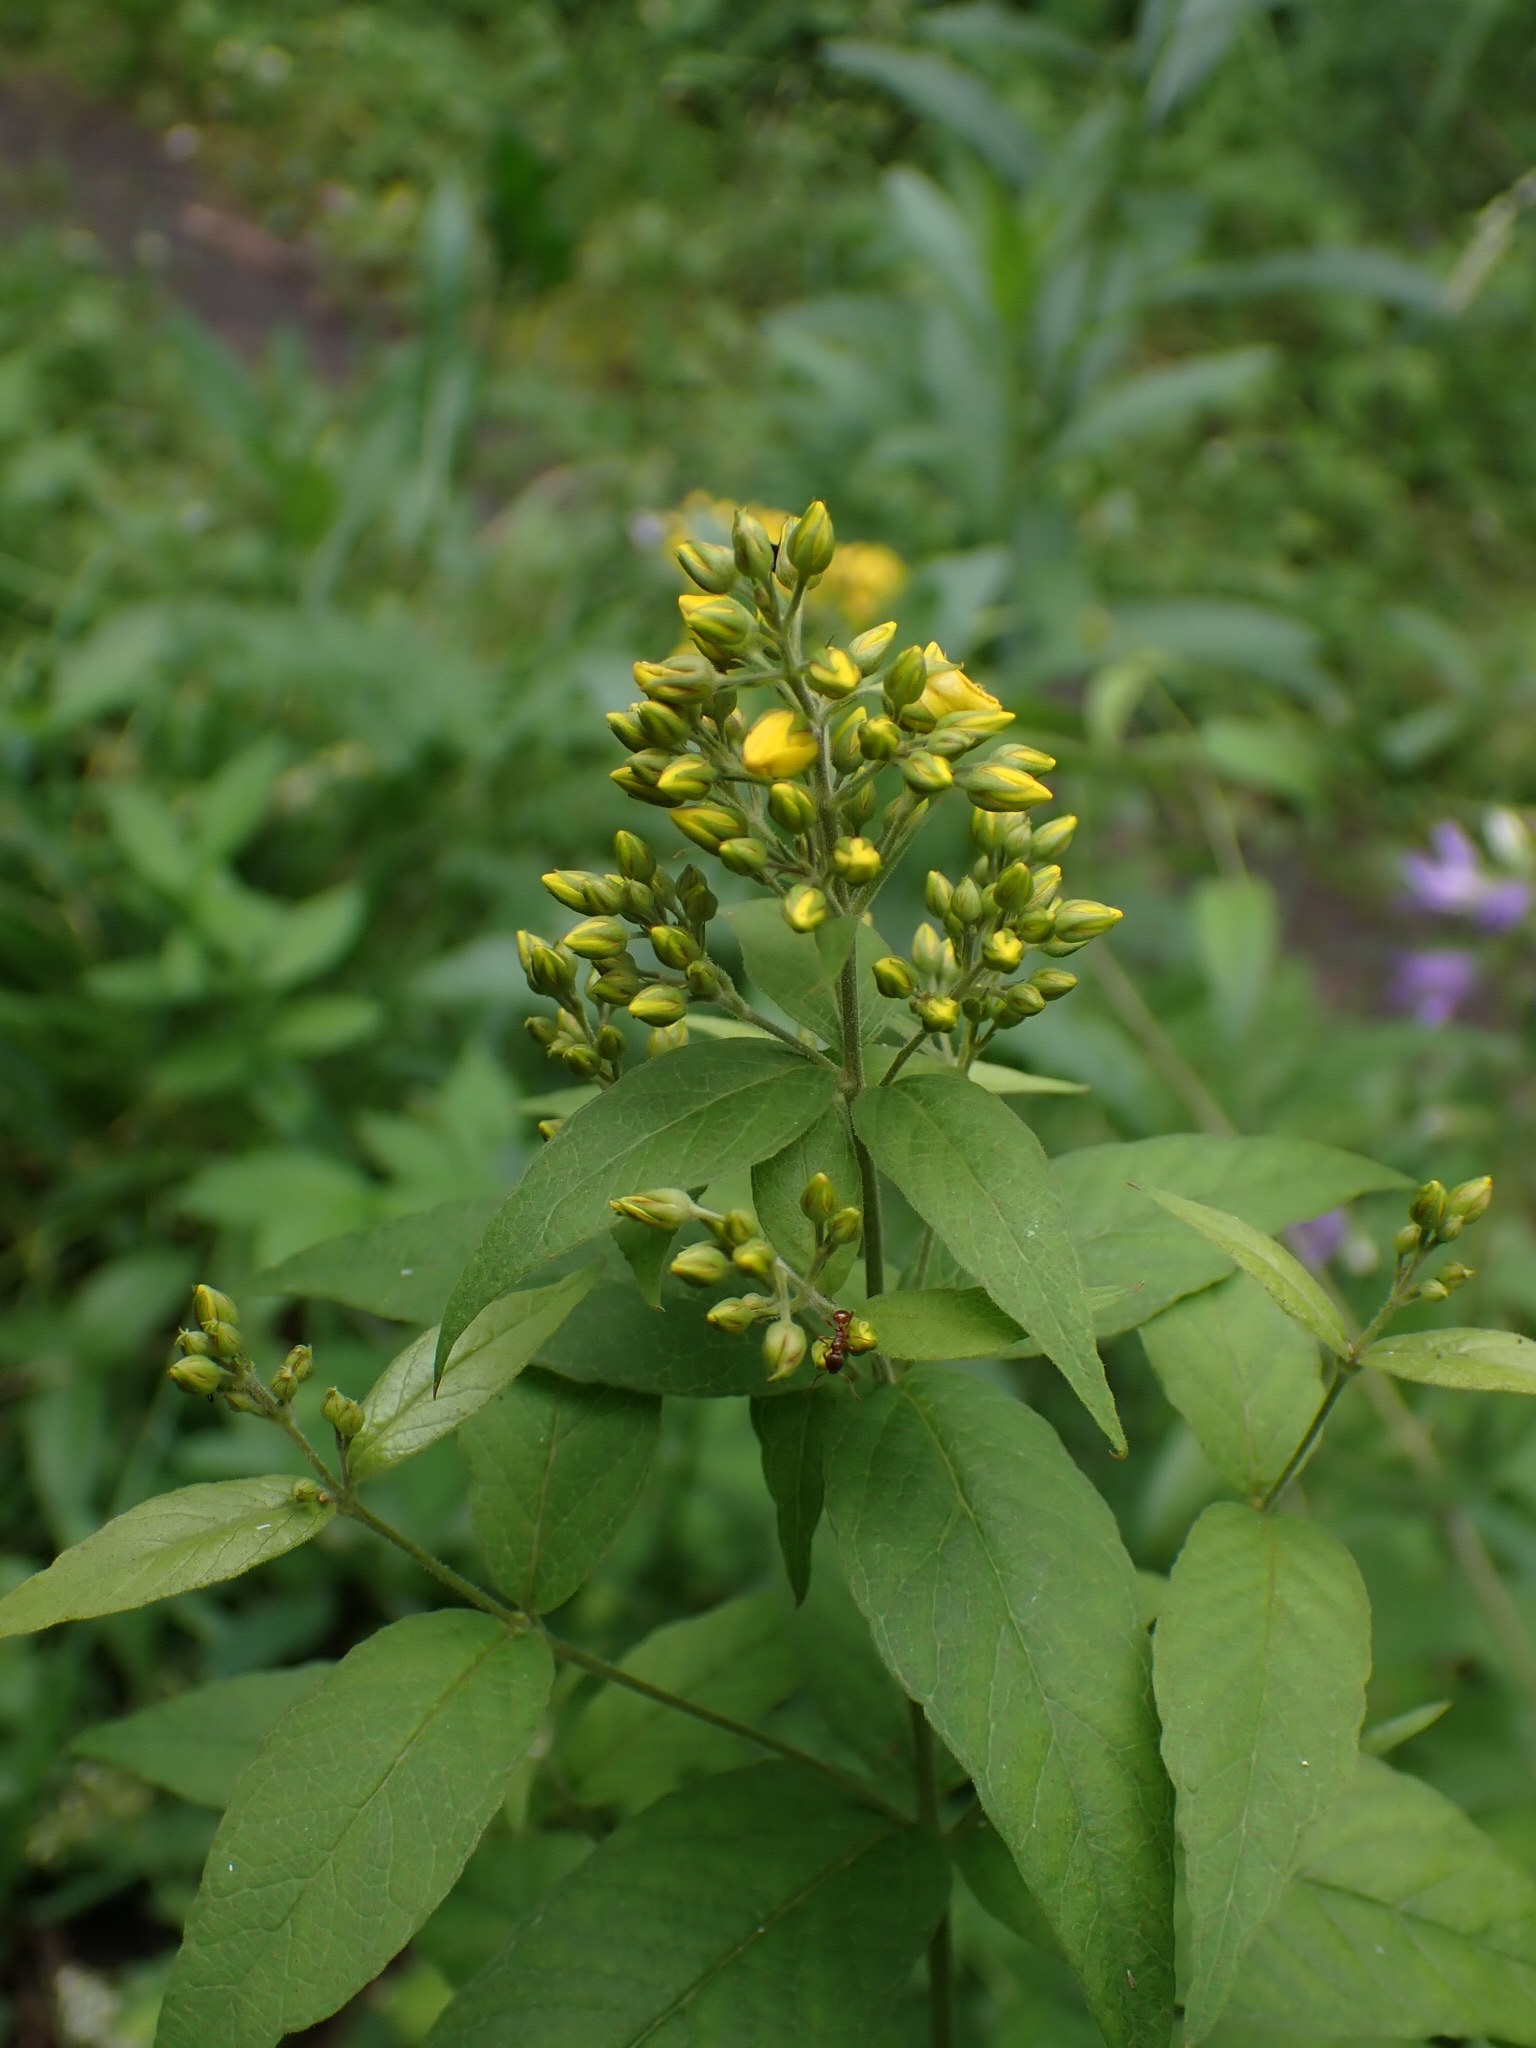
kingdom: Plantae
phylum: Tracheophyta
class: Magnoliopsida
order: Ericales
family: Primulaceae
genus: Lysimachia
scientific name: Lysimachia vulgaris
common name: Yellow loosestrife
